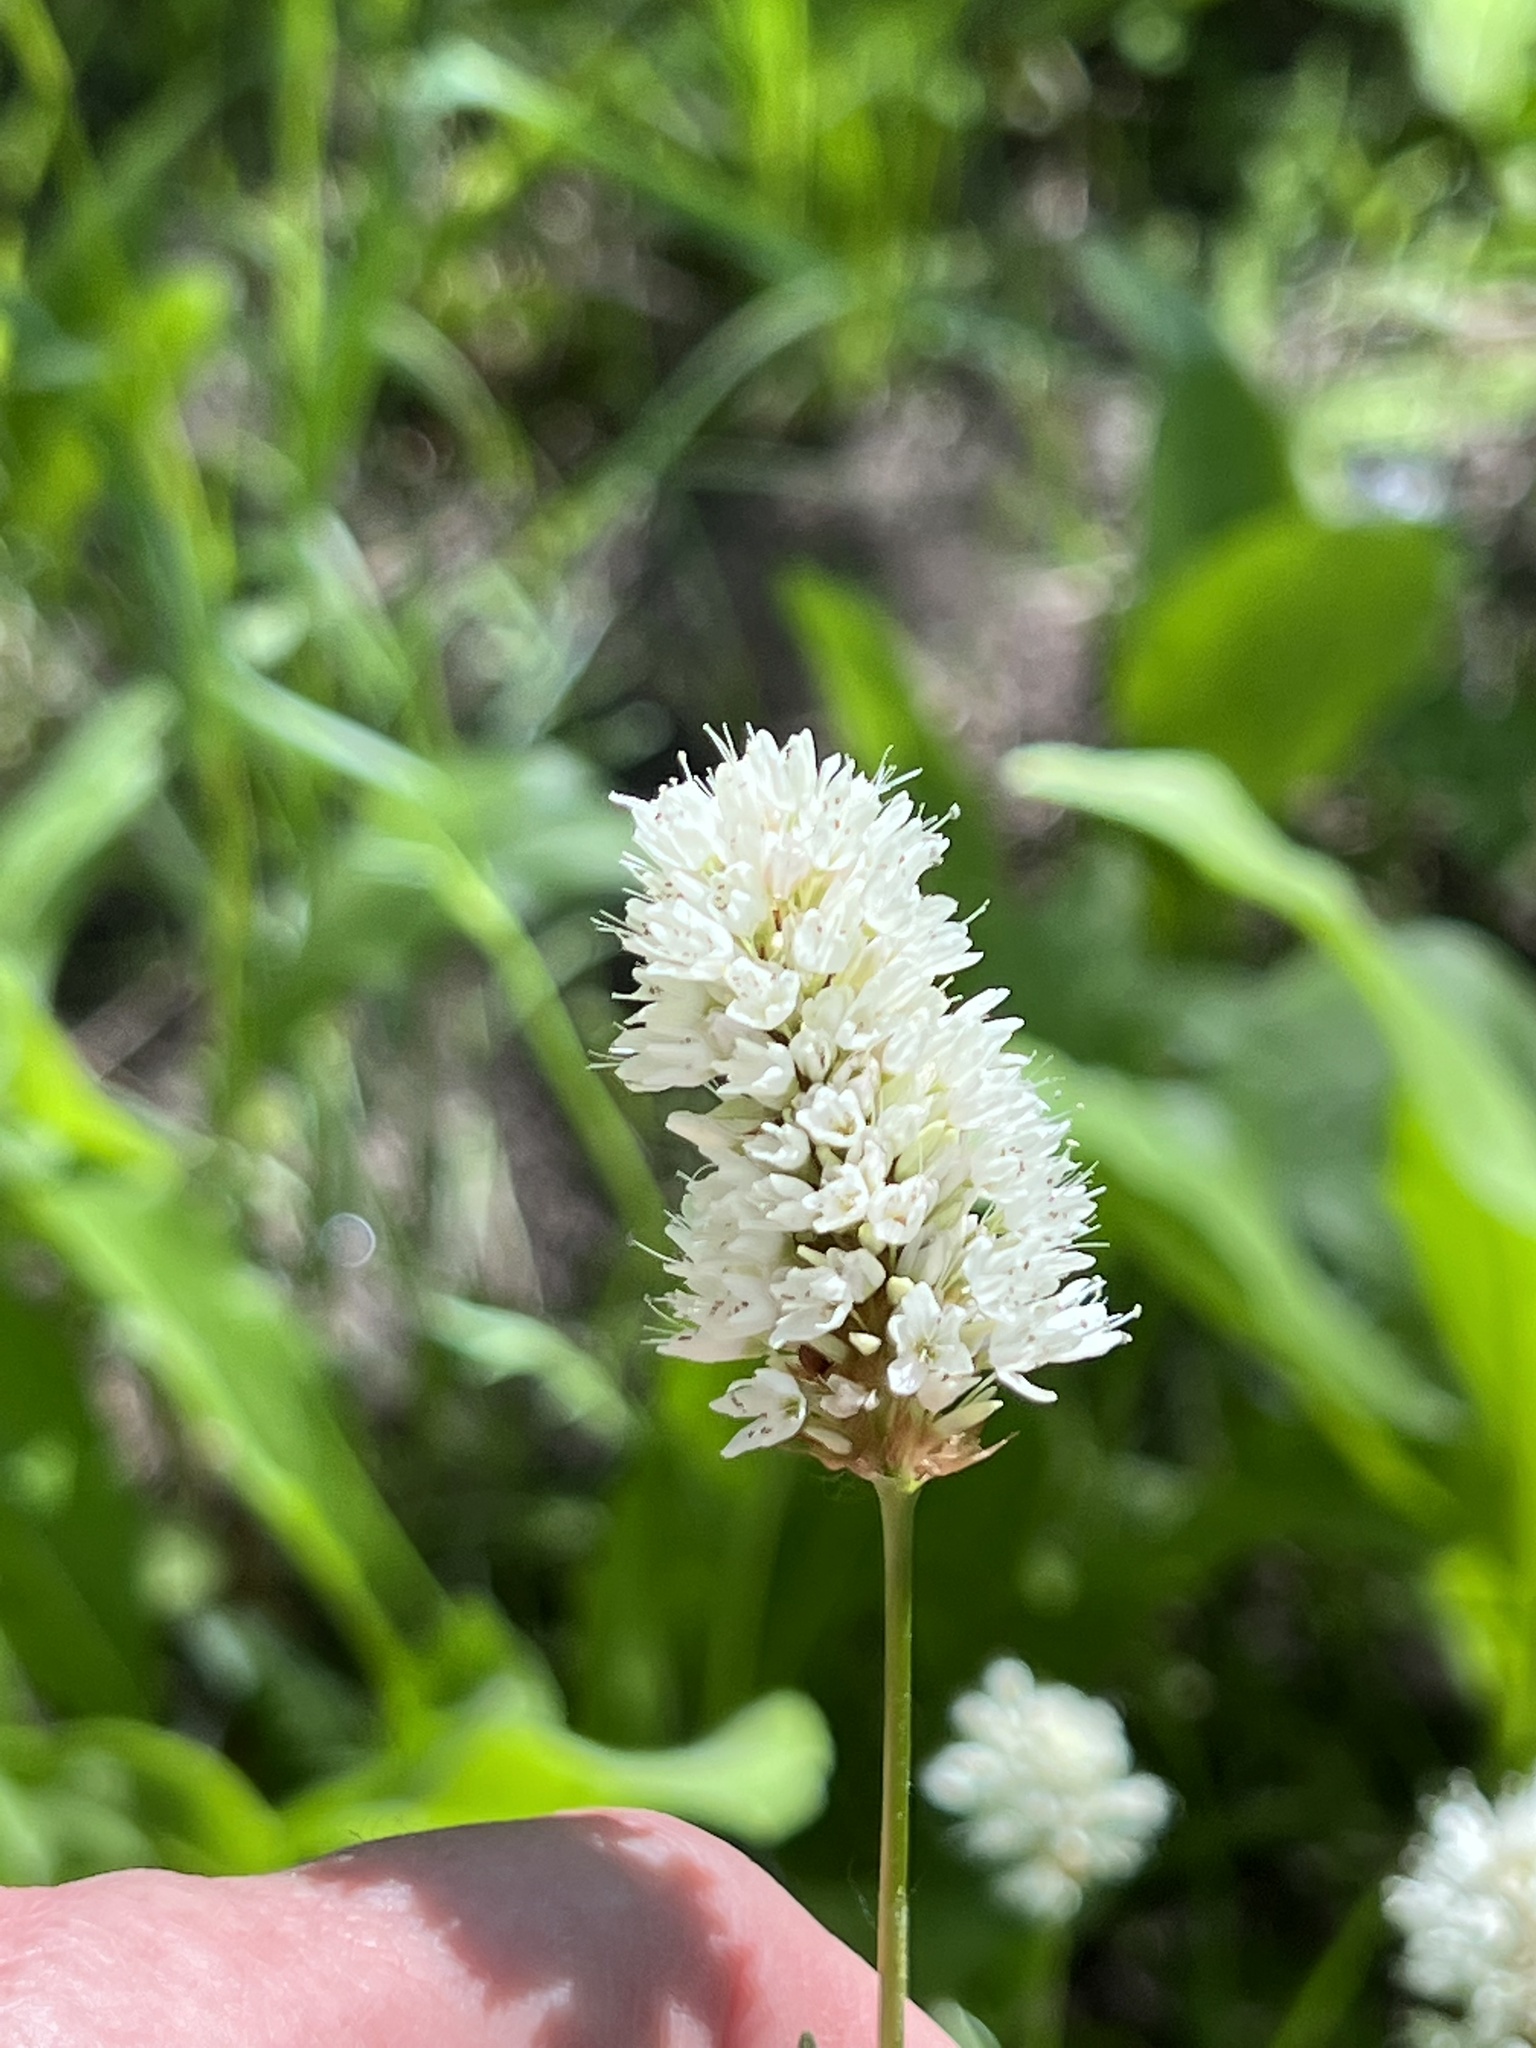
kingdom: Plantae
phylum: Tracheophyta
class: Magnoliopsida
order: Caryophyllales
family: Polygonaceae
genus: Bistorta
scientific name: Bistorta bistortoides
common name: American bistort
